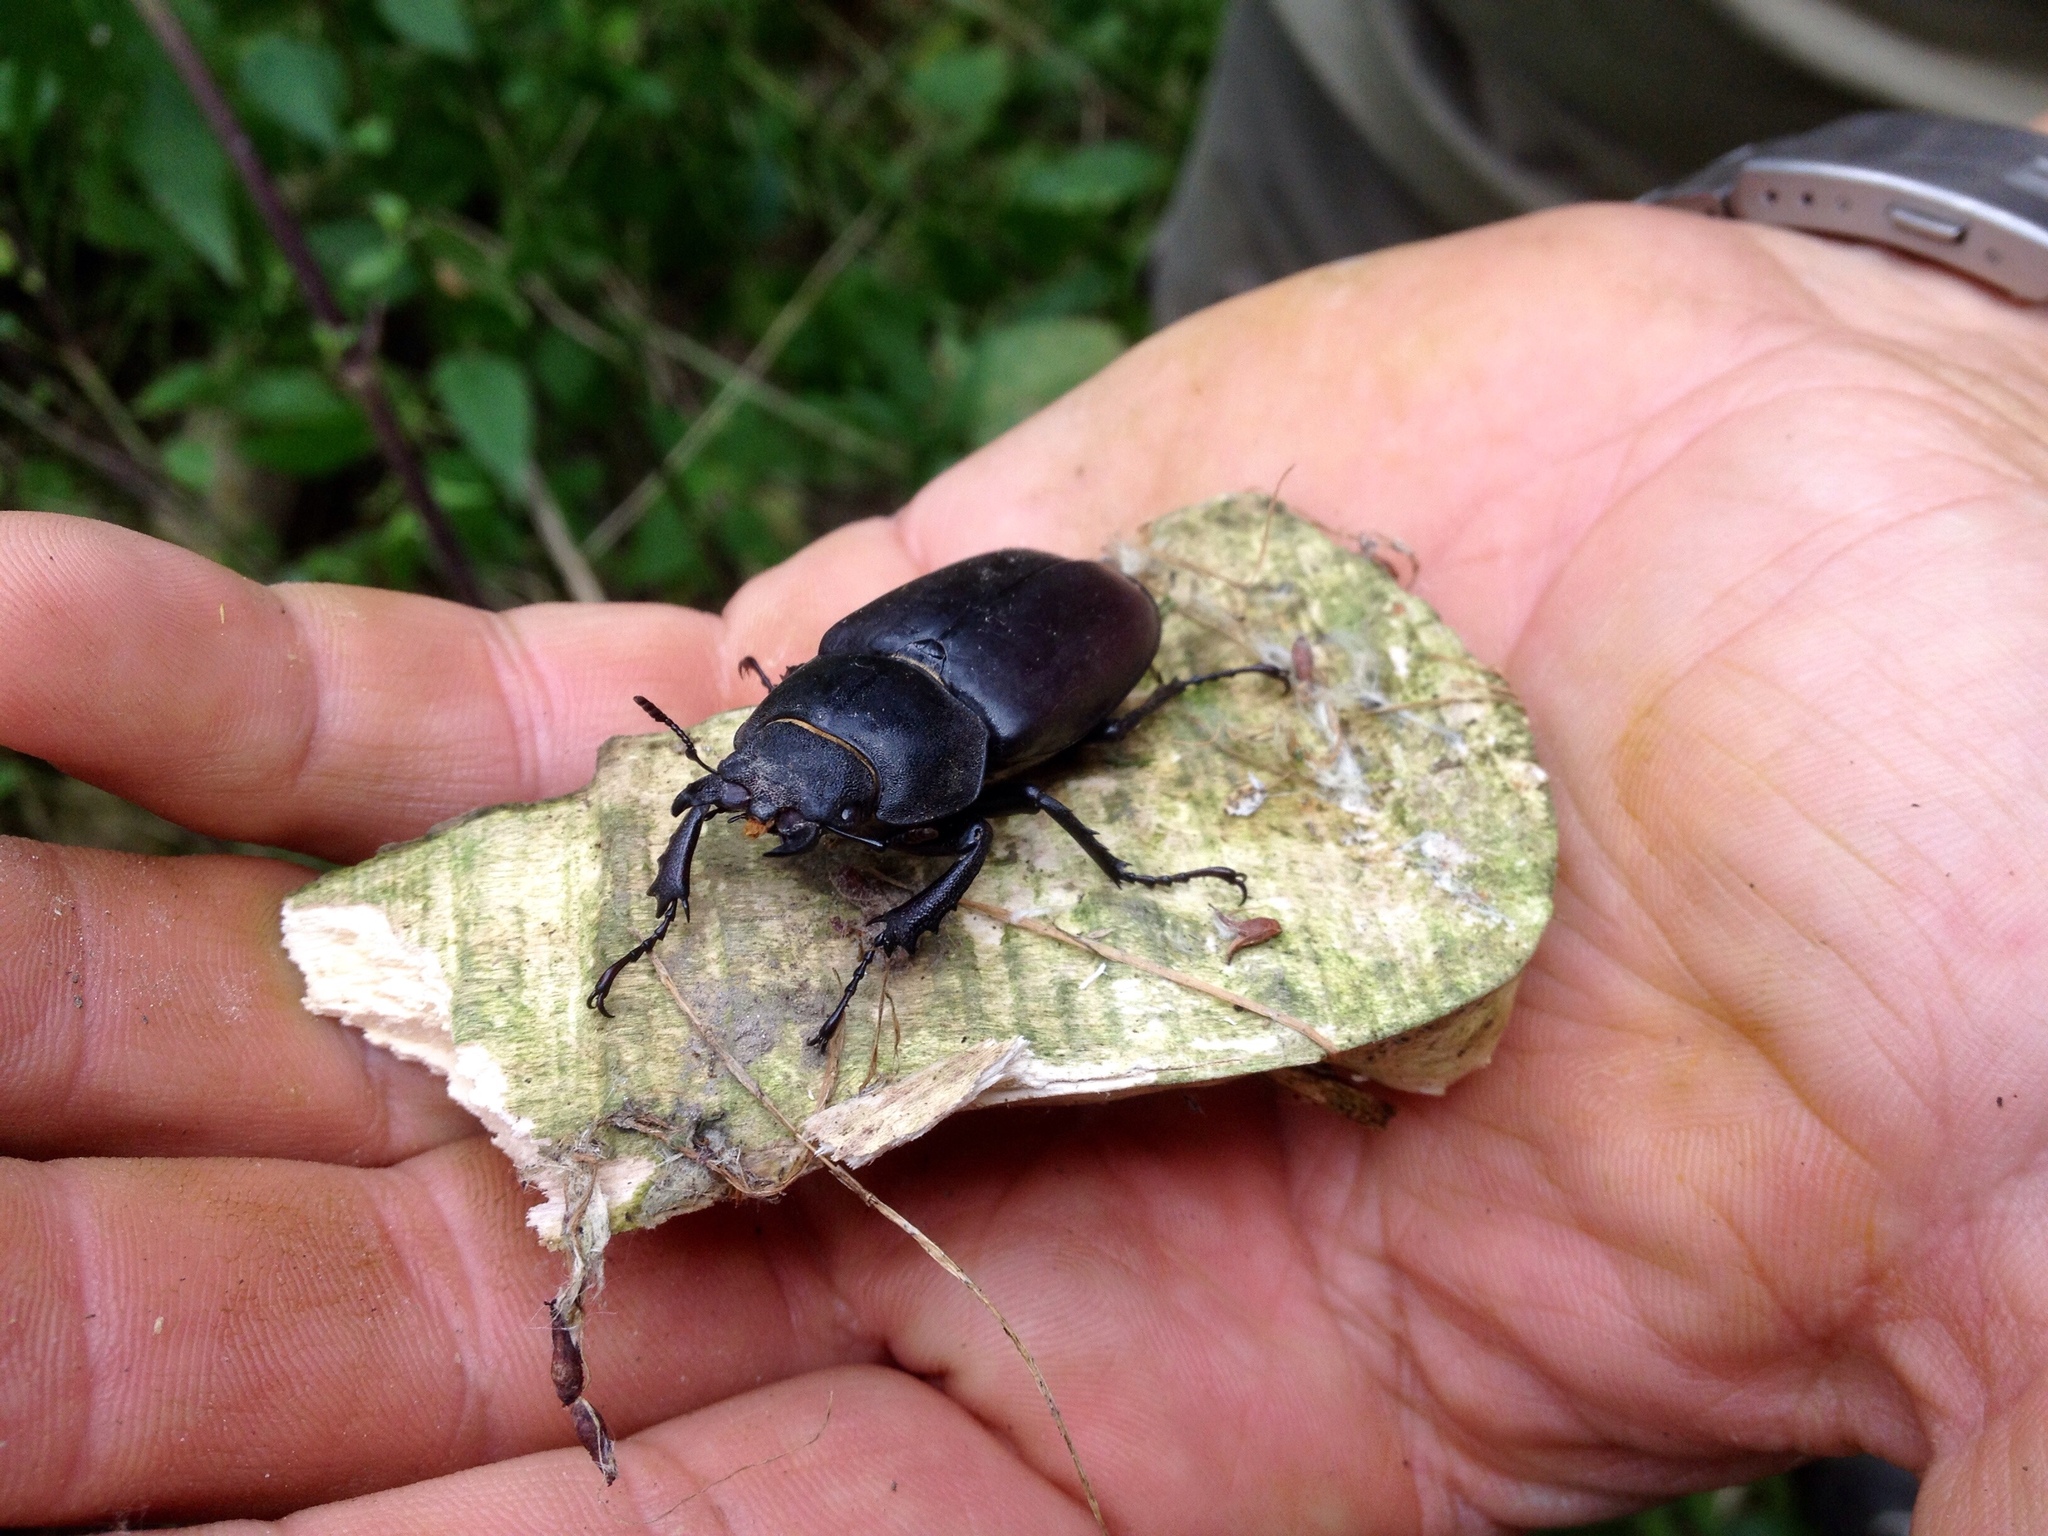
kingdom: Animalia
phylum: Arthropoda
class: Insecta
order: Coleoptera
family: Lucanidae
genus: Lucanus
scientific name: Lucanus cervus
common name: Stag beetle
